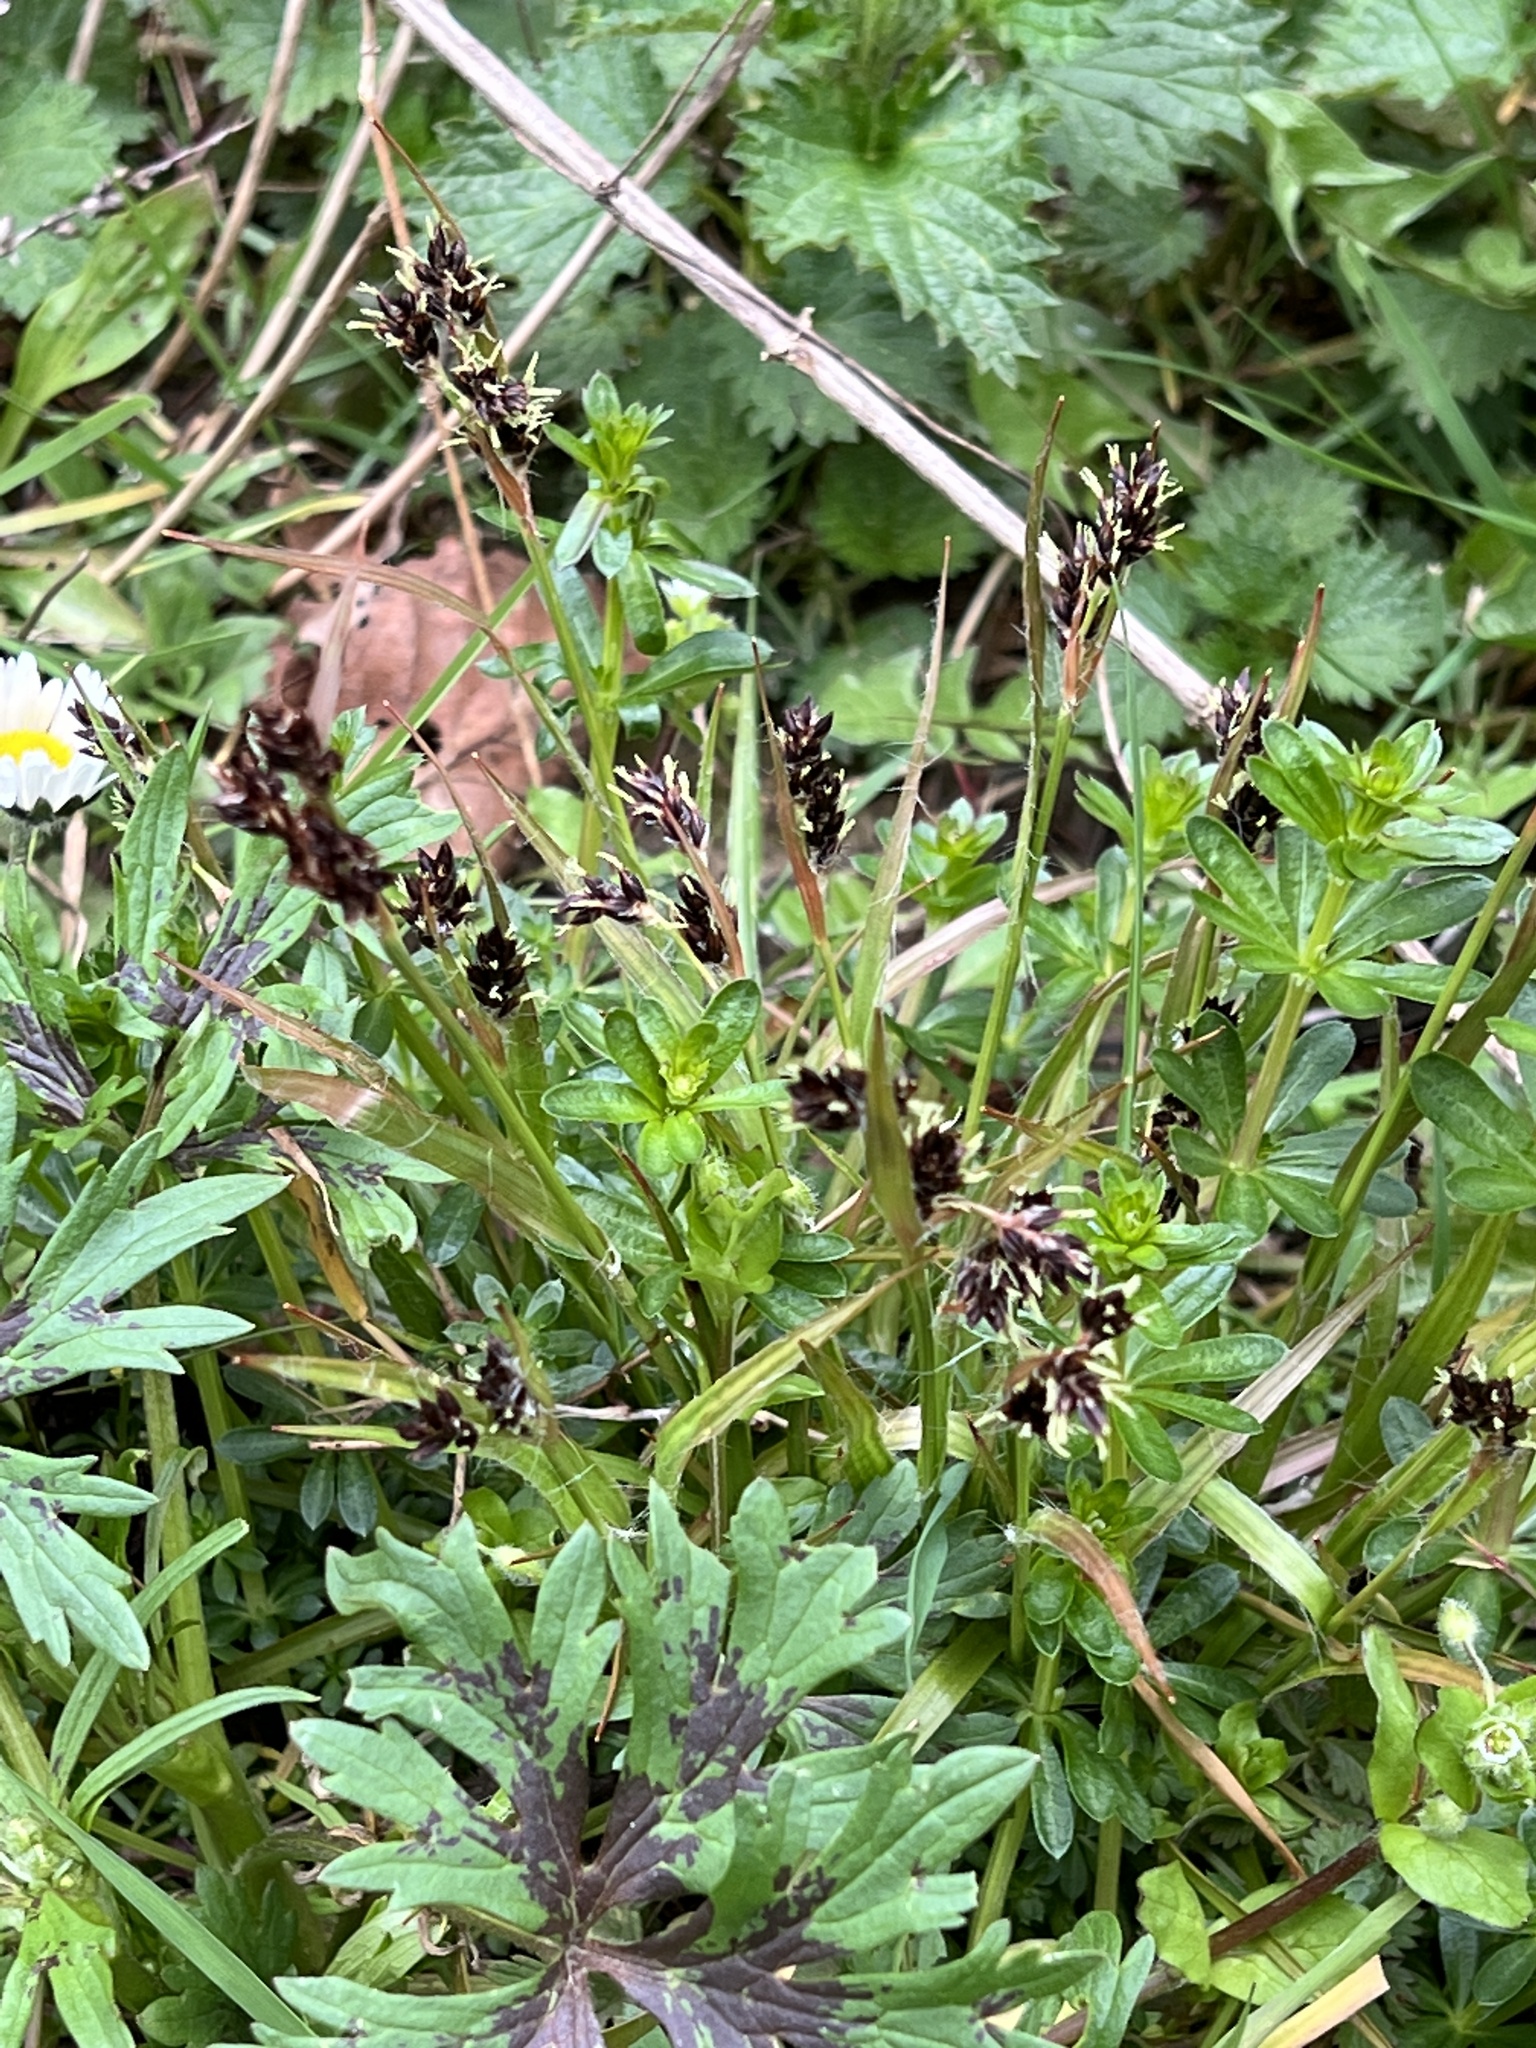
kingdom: Plantae
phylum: Tracheophyta
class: Liliopsida
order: Poales
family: Juncaceae
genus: Luzula
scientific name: Luzula campestris
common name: Field wood-rush
